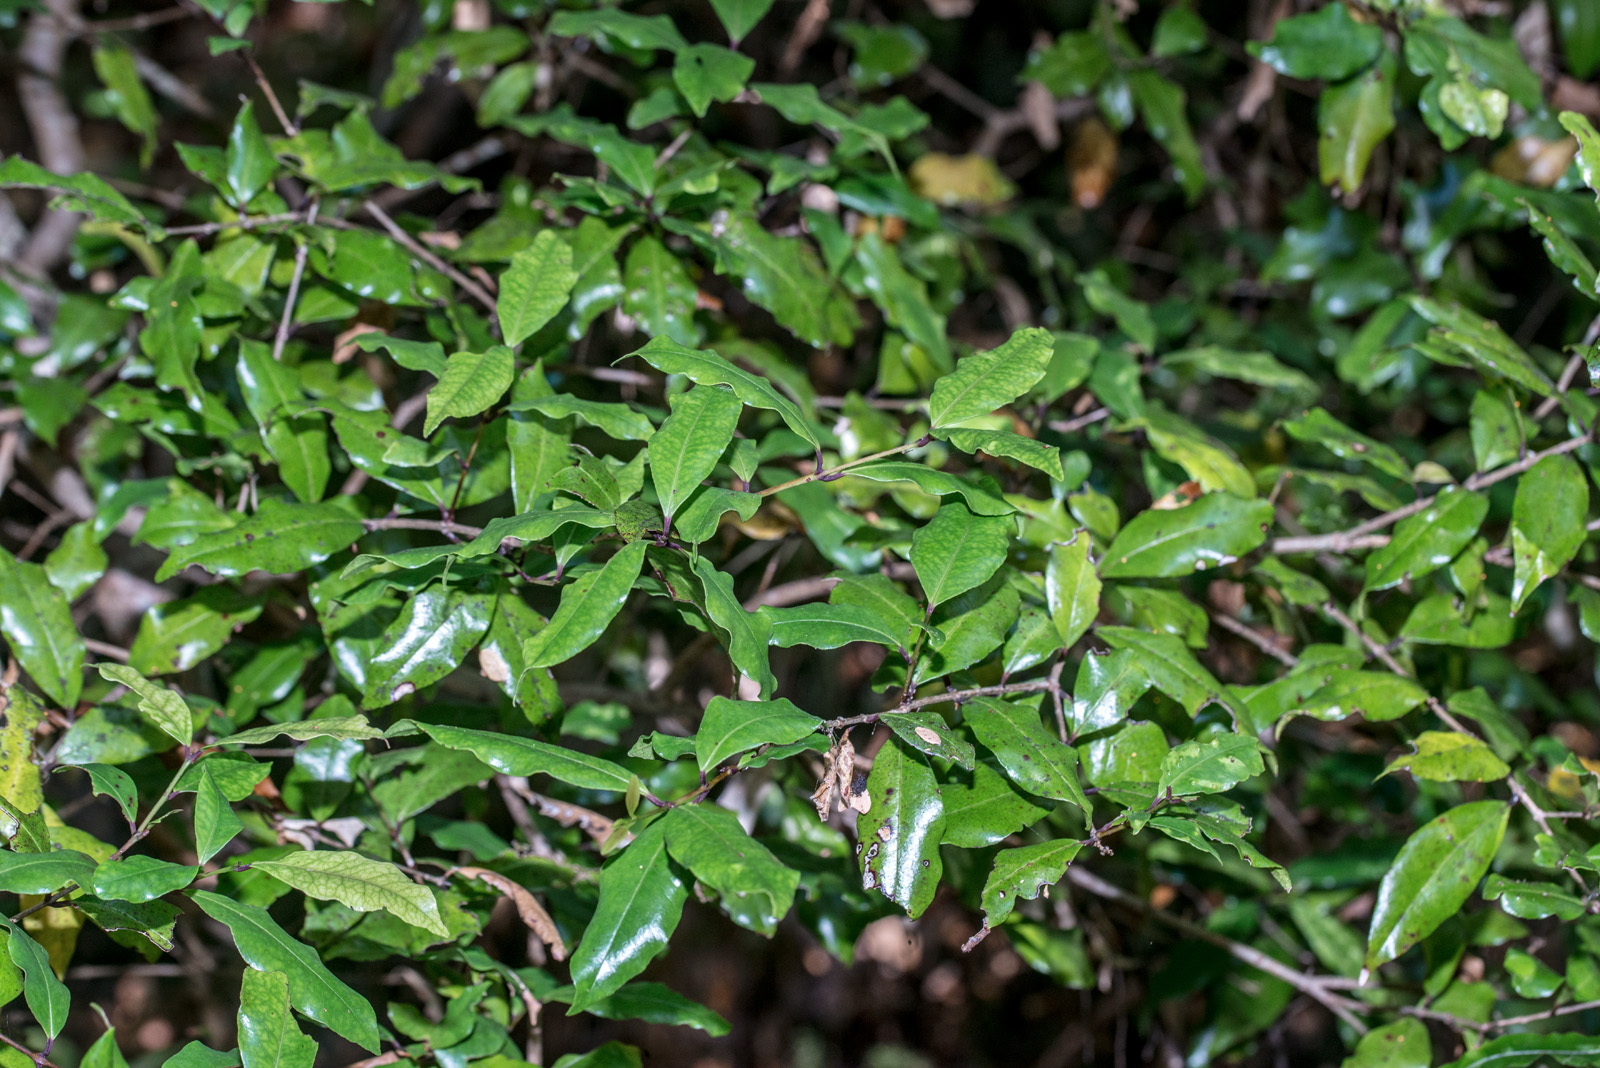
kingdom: Plantae
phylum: Tracheophyta
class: Magnoliopsida
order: Myrtales
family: Myrtaceae
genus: Syzygium
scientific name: Syzygium maire
